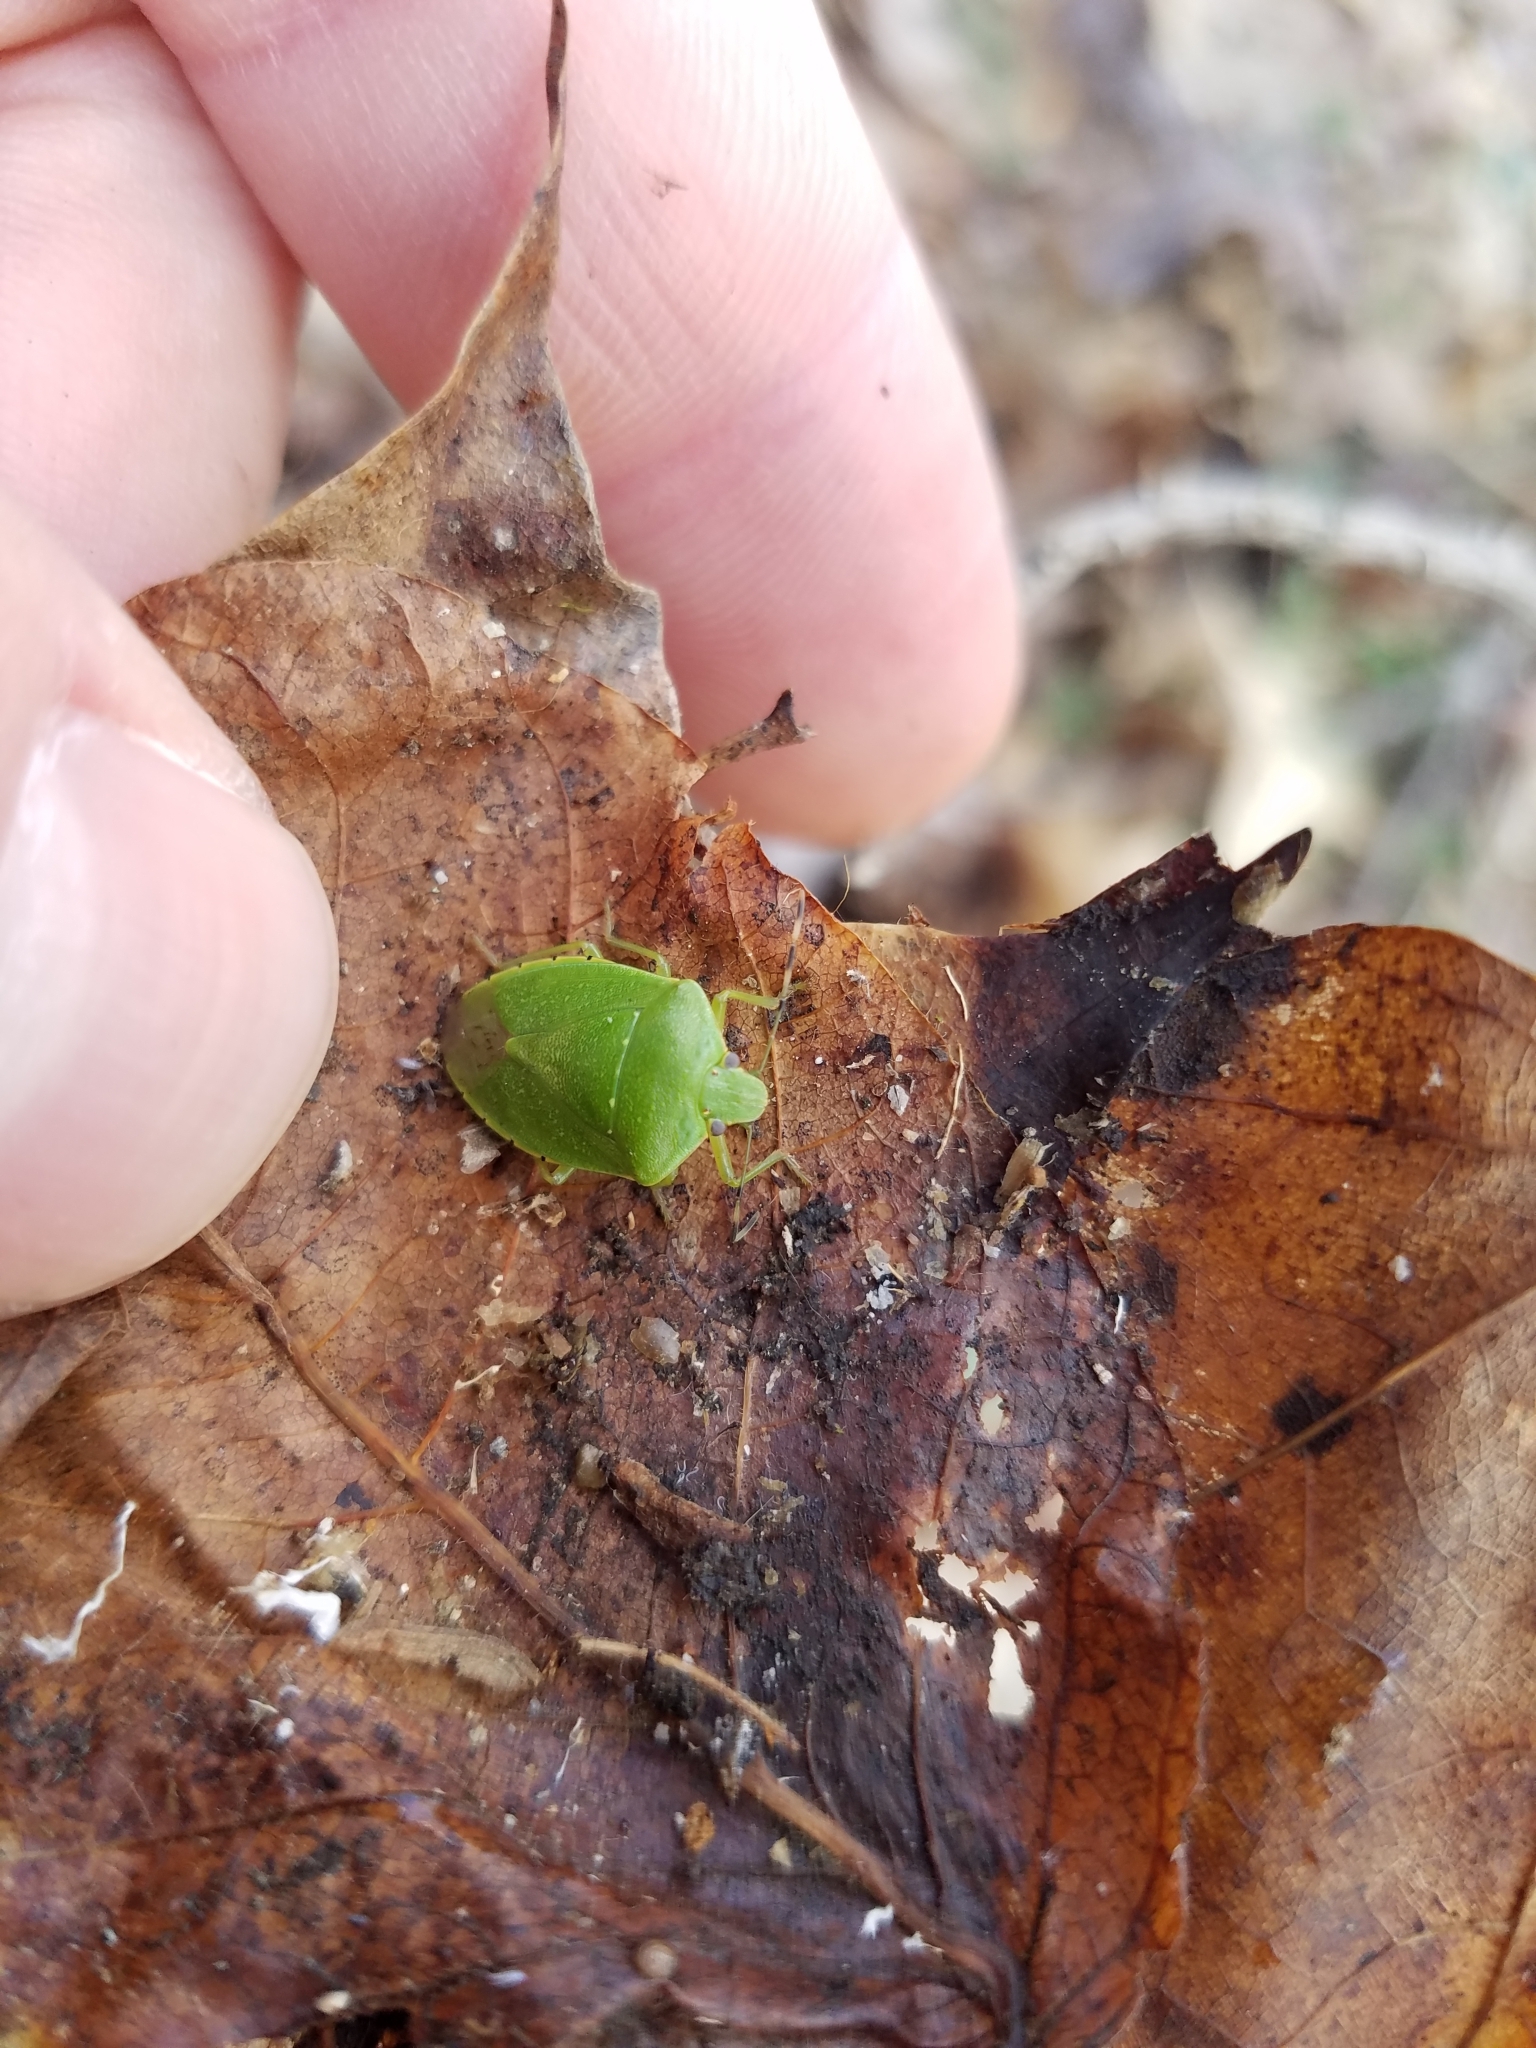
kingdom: Animalia
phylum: Arthropoda
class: Insecta
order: Hemiptera
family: Pentatomidae
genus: Chinavia
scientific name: Chinavia hilaris
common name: Green stink bug
